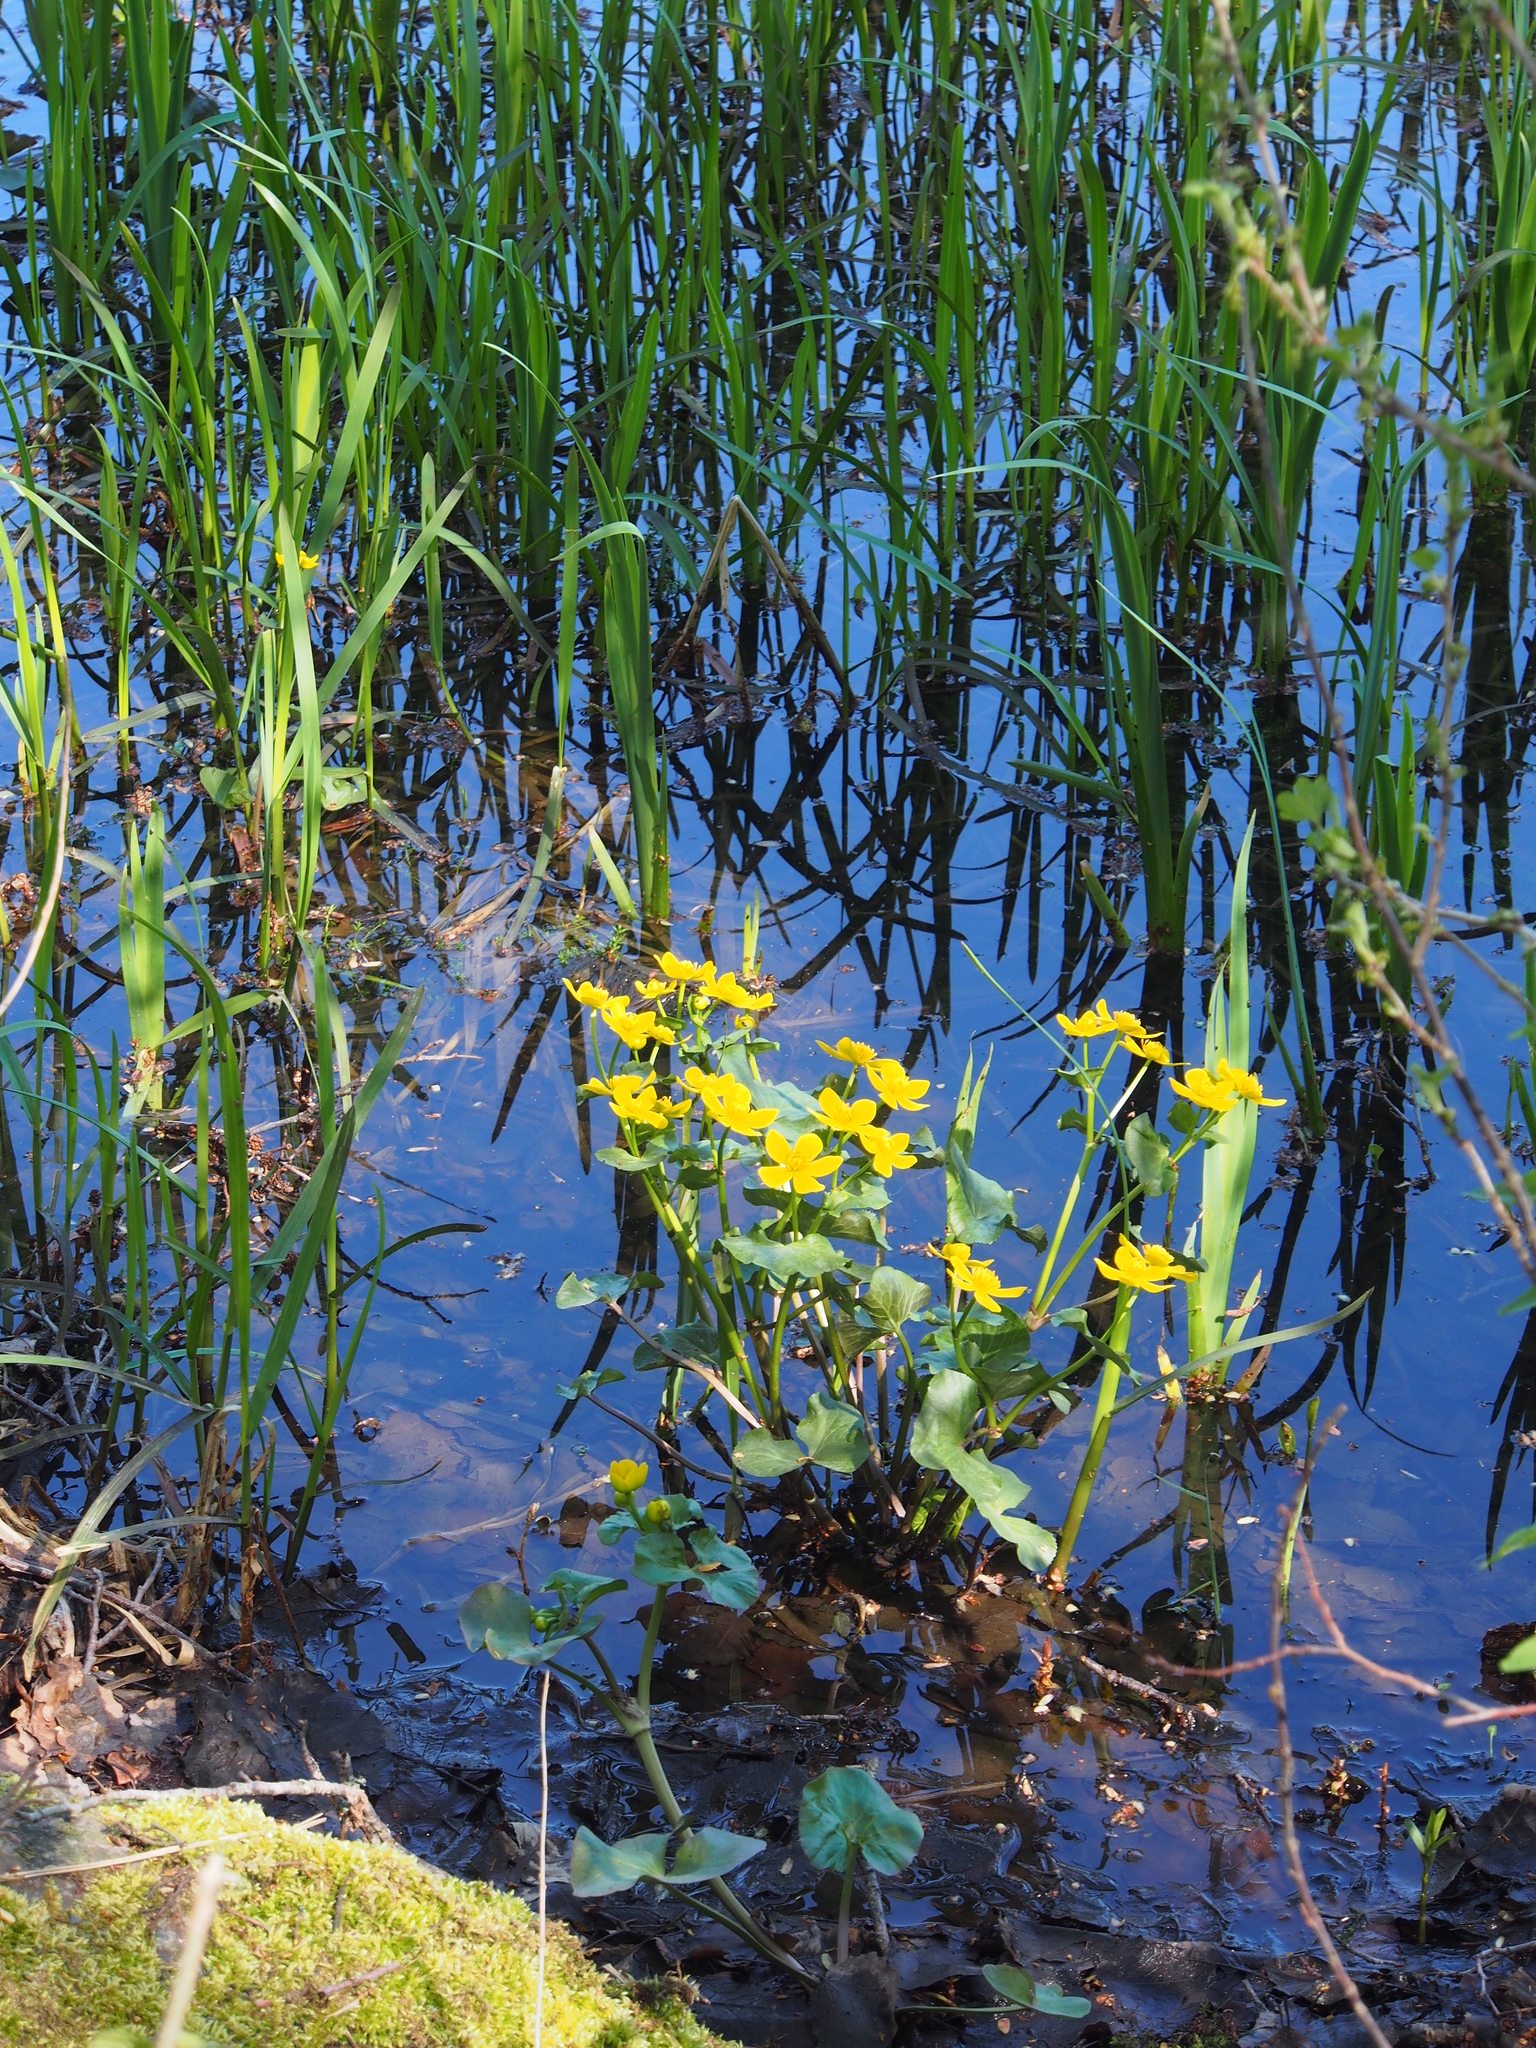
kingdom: Plantae
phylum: Tracheophyta
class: Magnoliopsida
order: Ranunculales
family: Ranunculaceae
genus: Caltha
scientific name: Caltha palustris
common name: Marsh marigold
